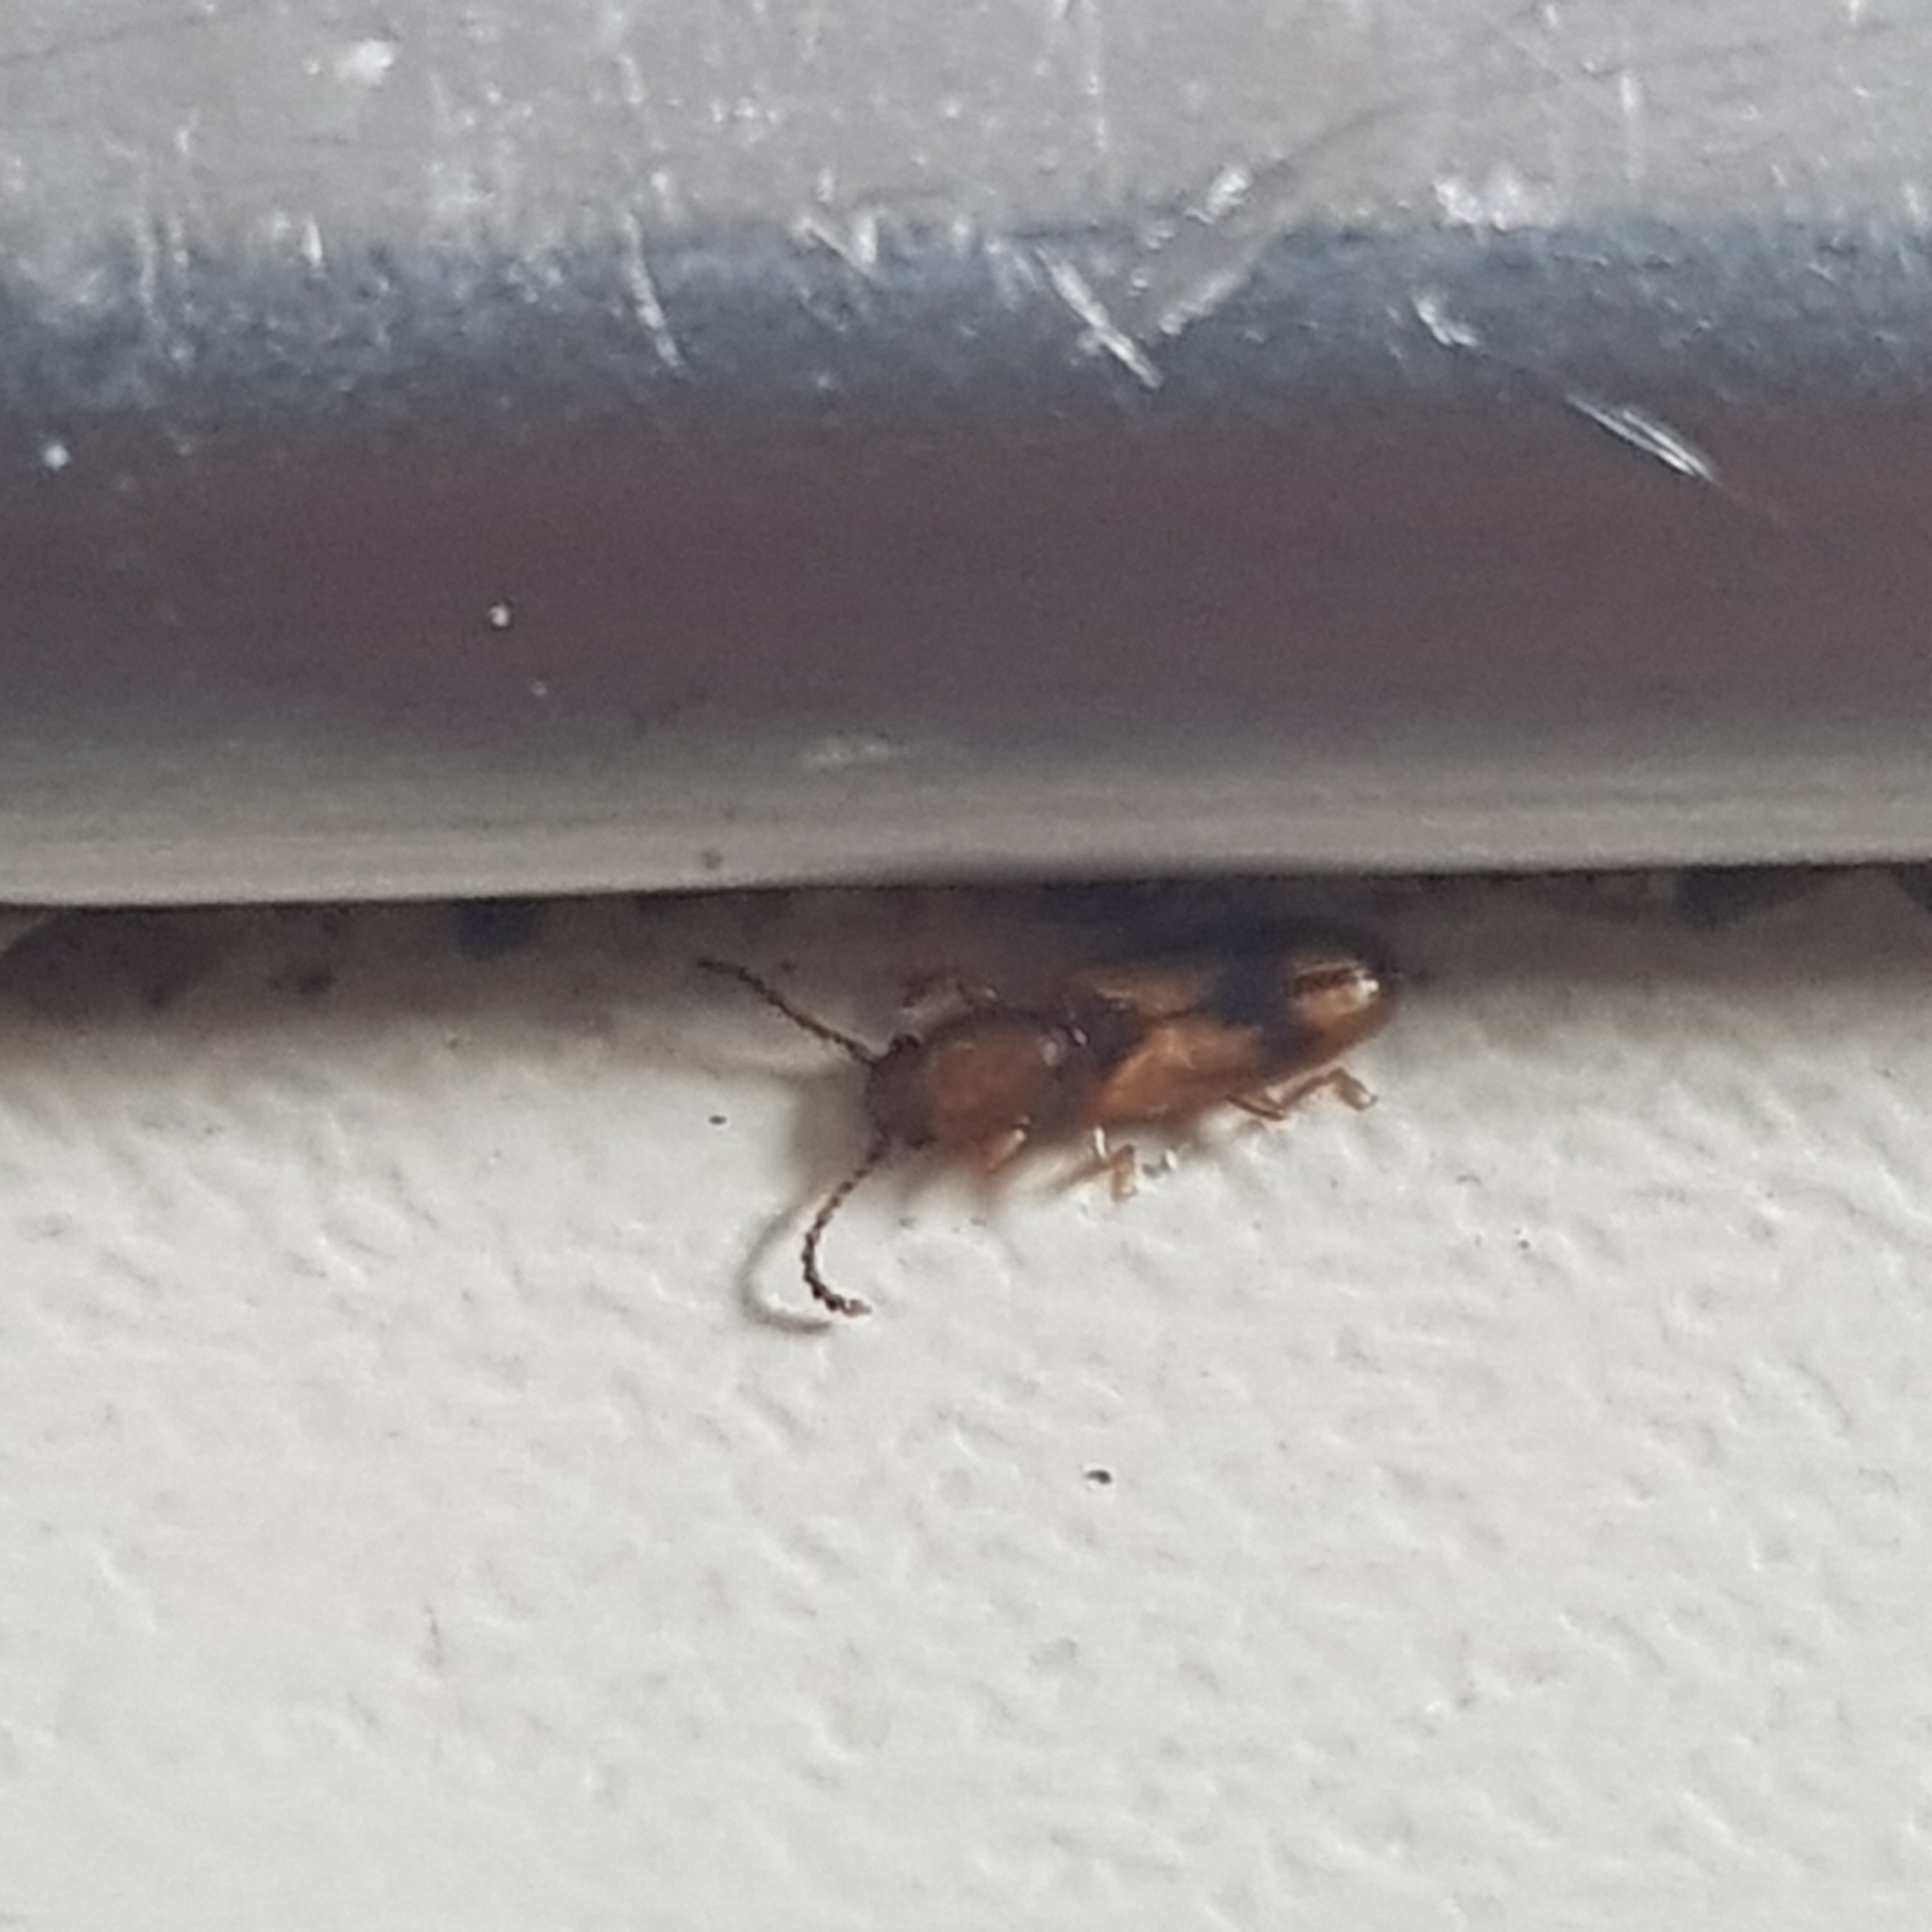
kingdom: Animalia
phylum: Arthropoda
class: Insecta
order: Coleoptera
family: Silvanidae
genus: Cryptamorpha
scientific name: Cryptamorpha desjardinsi
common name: Cryptamorpha
